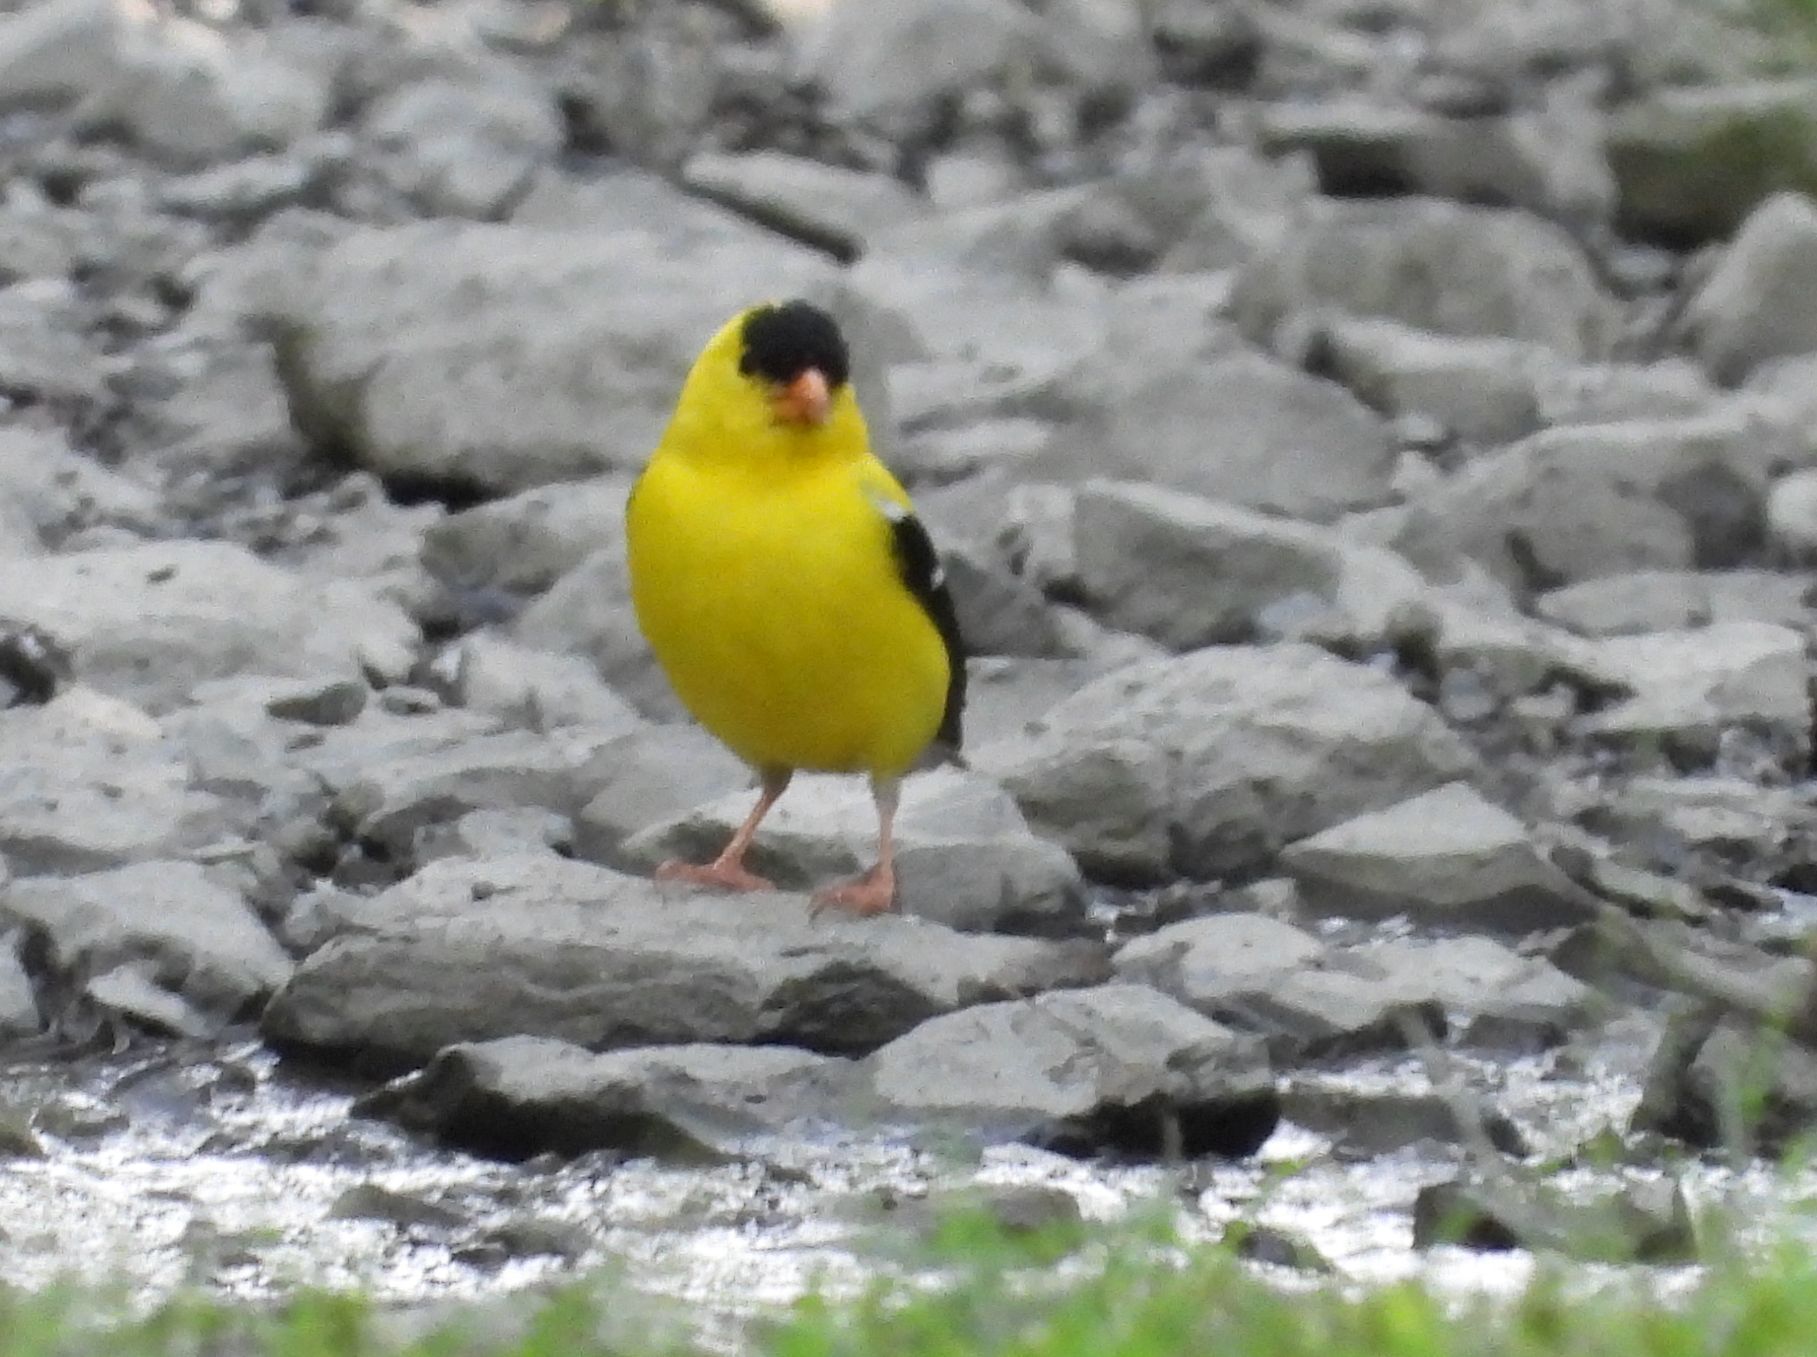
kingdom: Animalia
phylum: Chordata
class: Aves
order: Passeriformes
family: Fringillidae
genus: Spinus
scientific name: Spinus tristis
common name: American goldfinch
